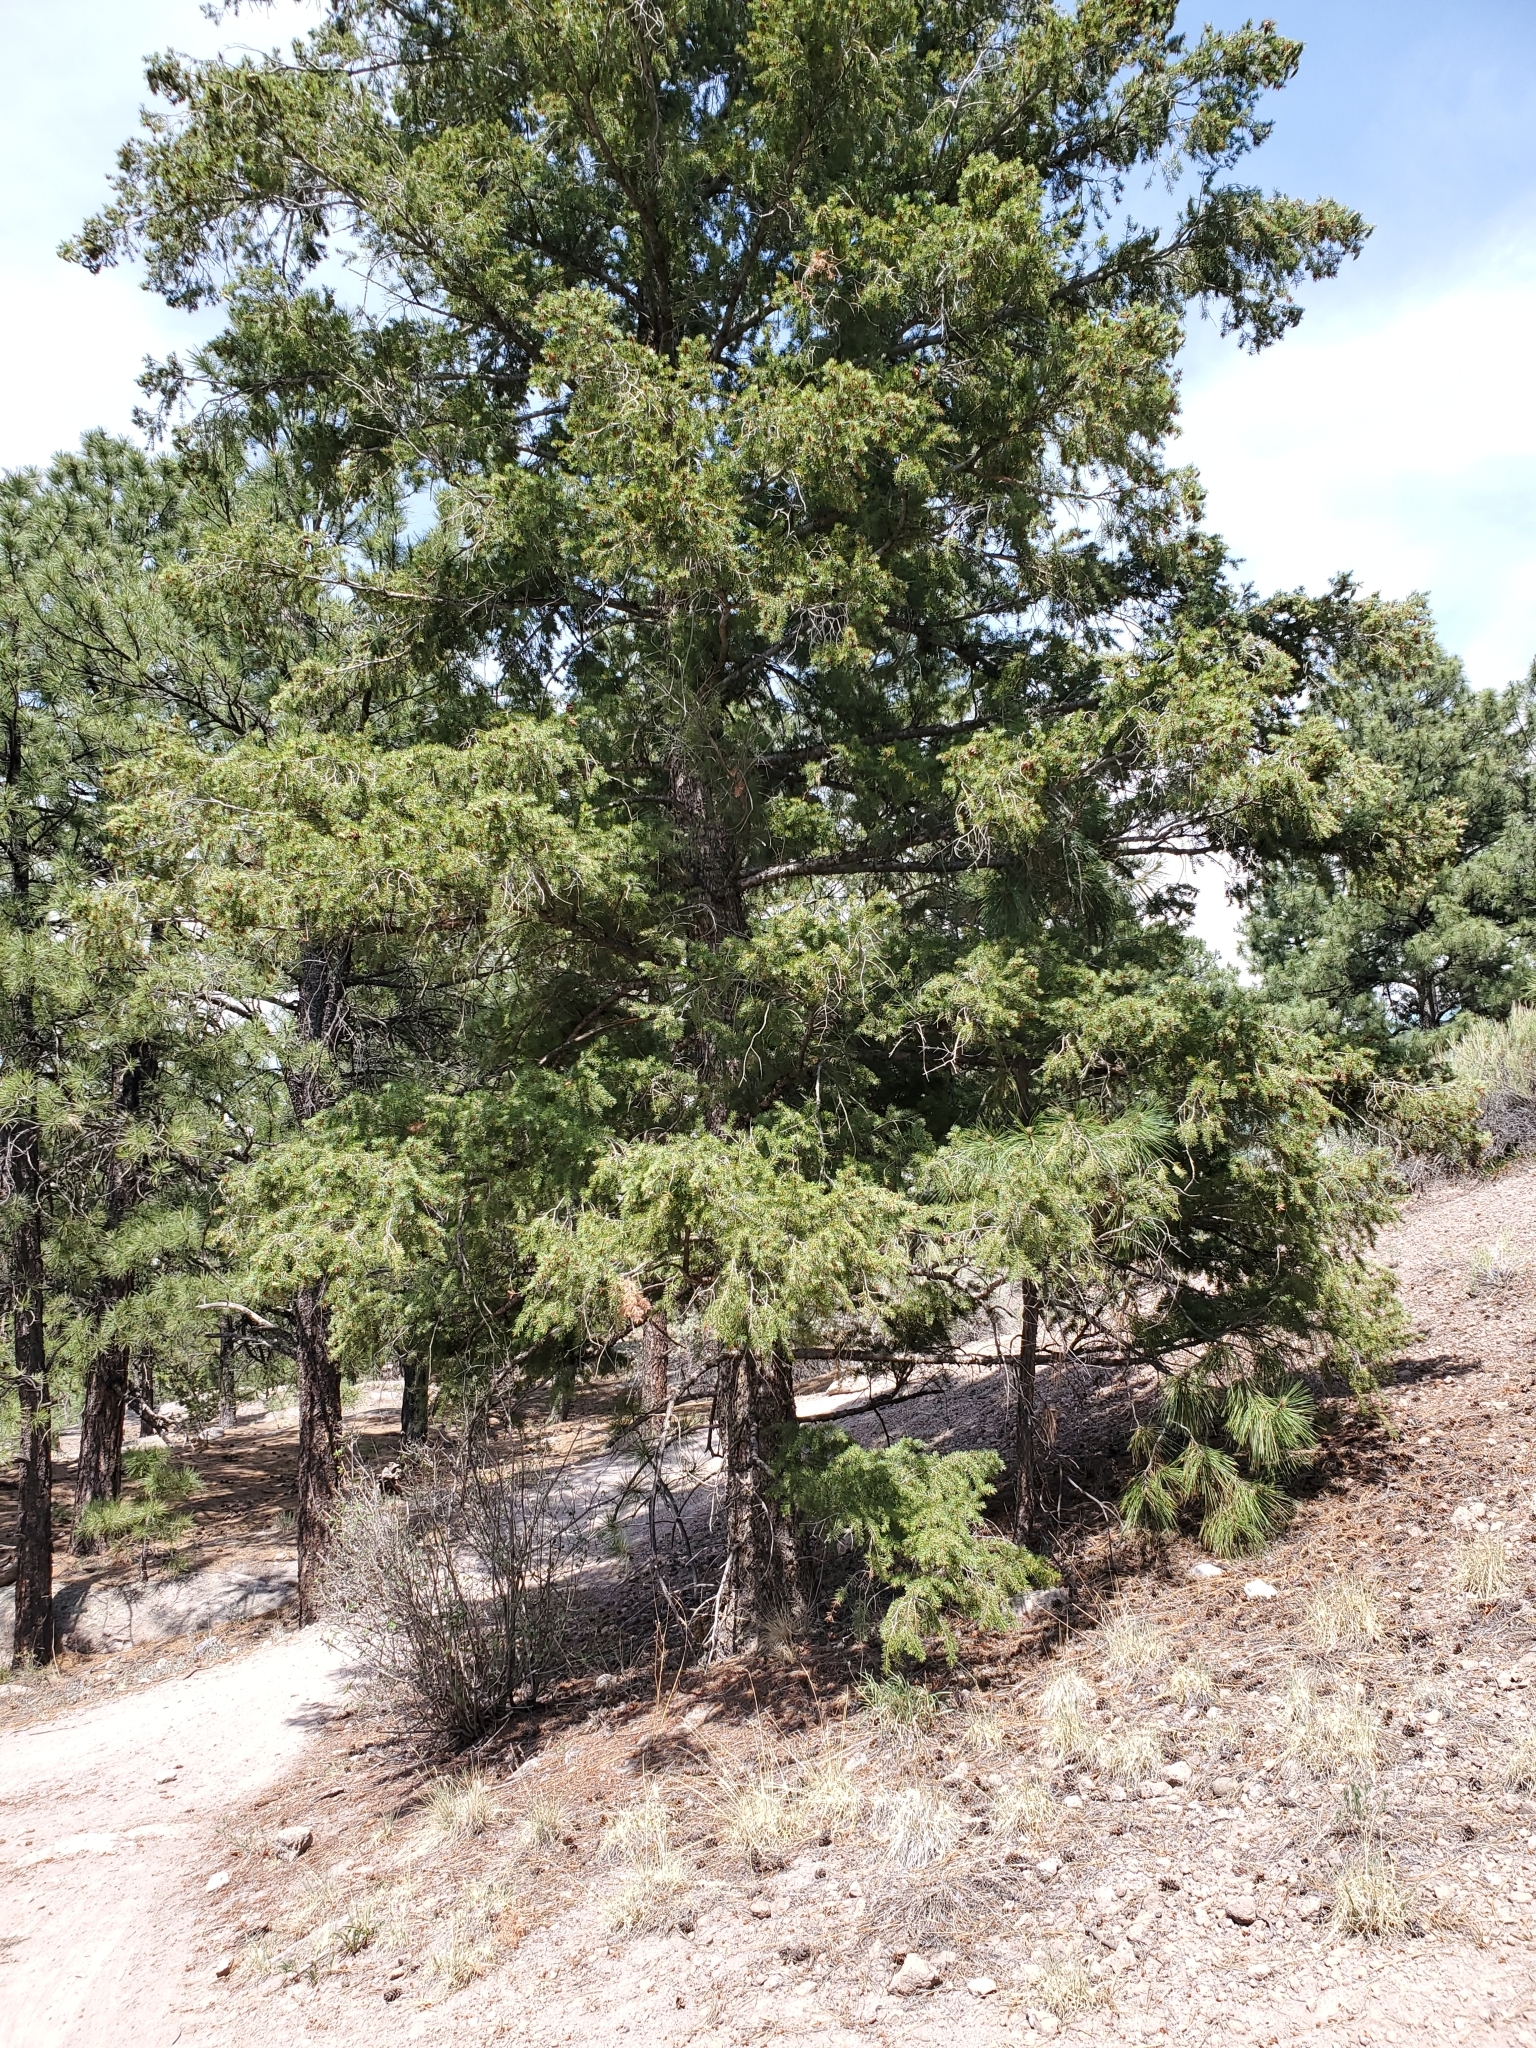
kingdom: Plantae
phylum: Tracheophyta
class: Pinopsida
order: Pinales
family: Pinaceae
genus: Pseudotsuga
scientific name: Pseudotsuga menziesii
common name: Douglas fir
